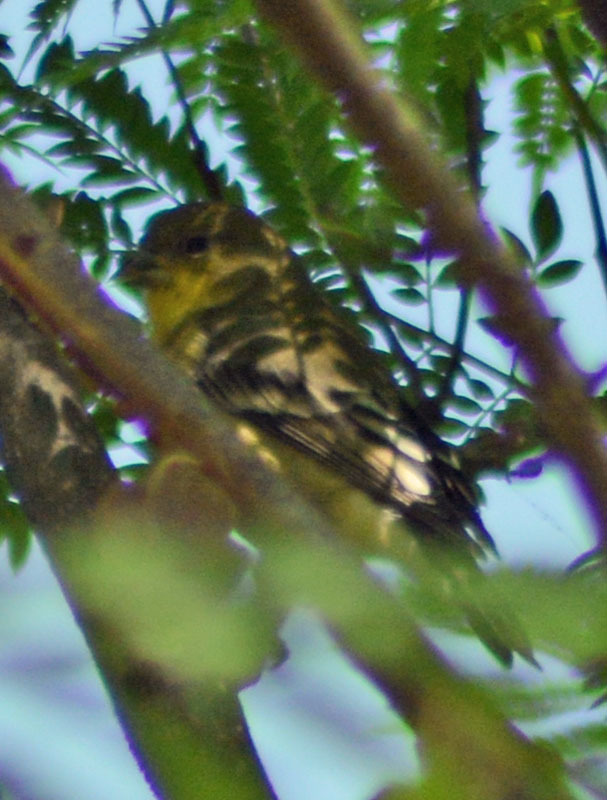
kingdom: Animalia
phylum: Chordata
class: Aves
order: Passeriformes
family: Fringillidae
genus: Spinus
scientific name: Spinus psaltria
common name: Lesser goldfinch
